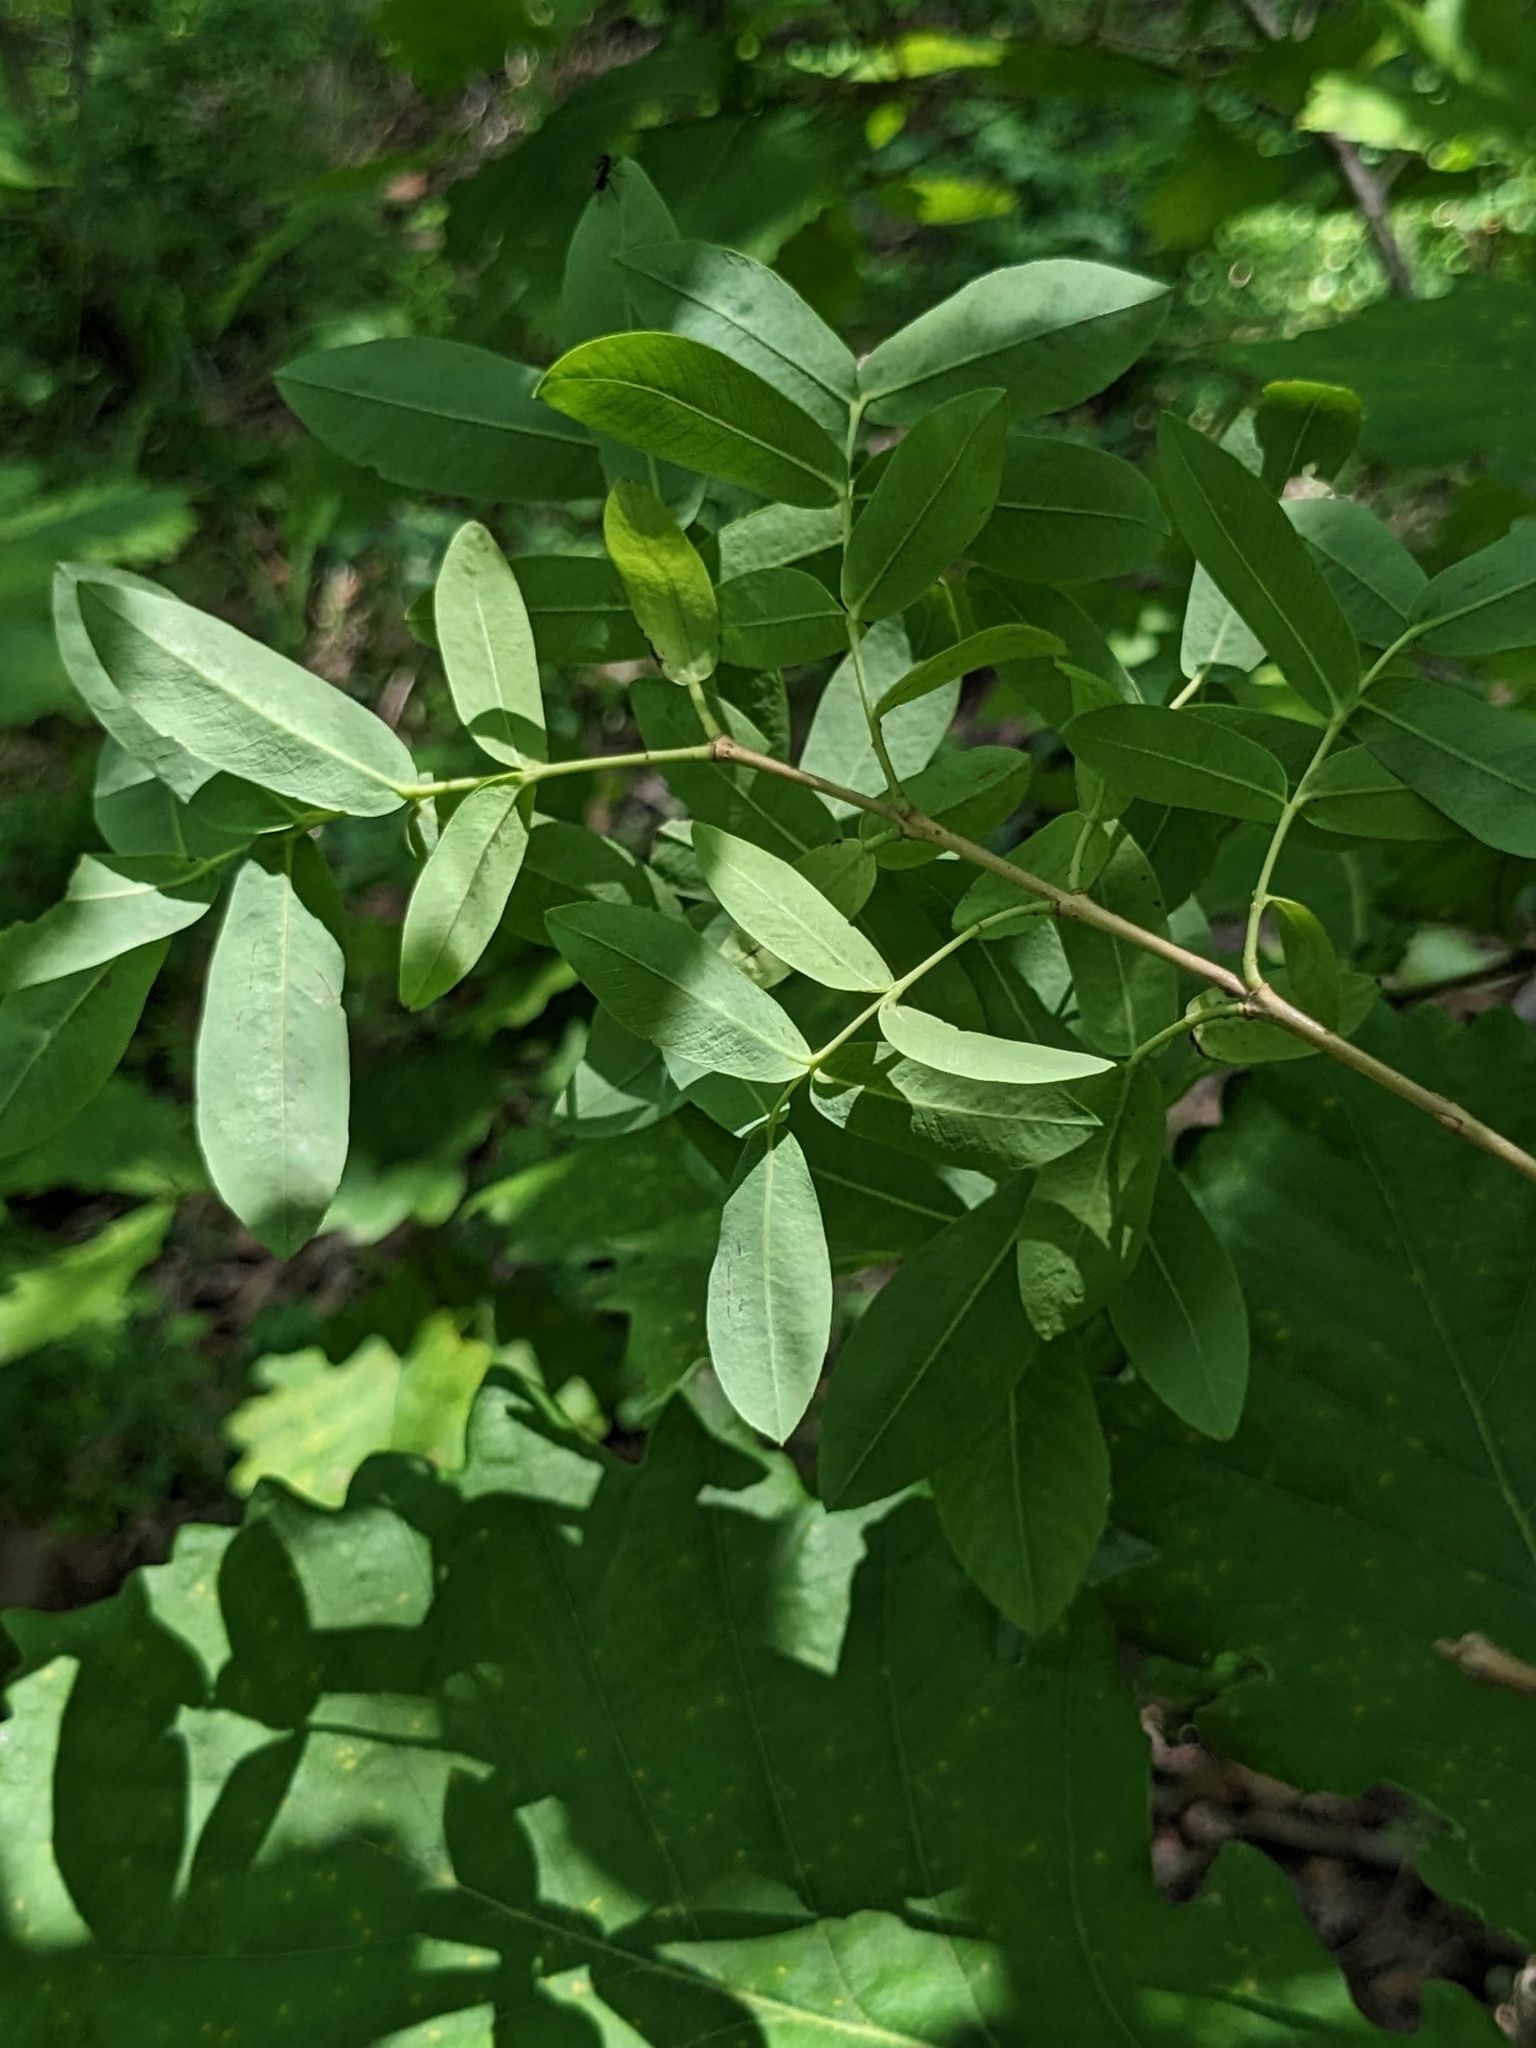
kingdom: Plantae
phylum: Tracheophyta
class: Magnoliopsida
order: Malpighiales
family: Salicaceae
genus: Salix
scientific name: Salix integra
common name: Dappled willow
